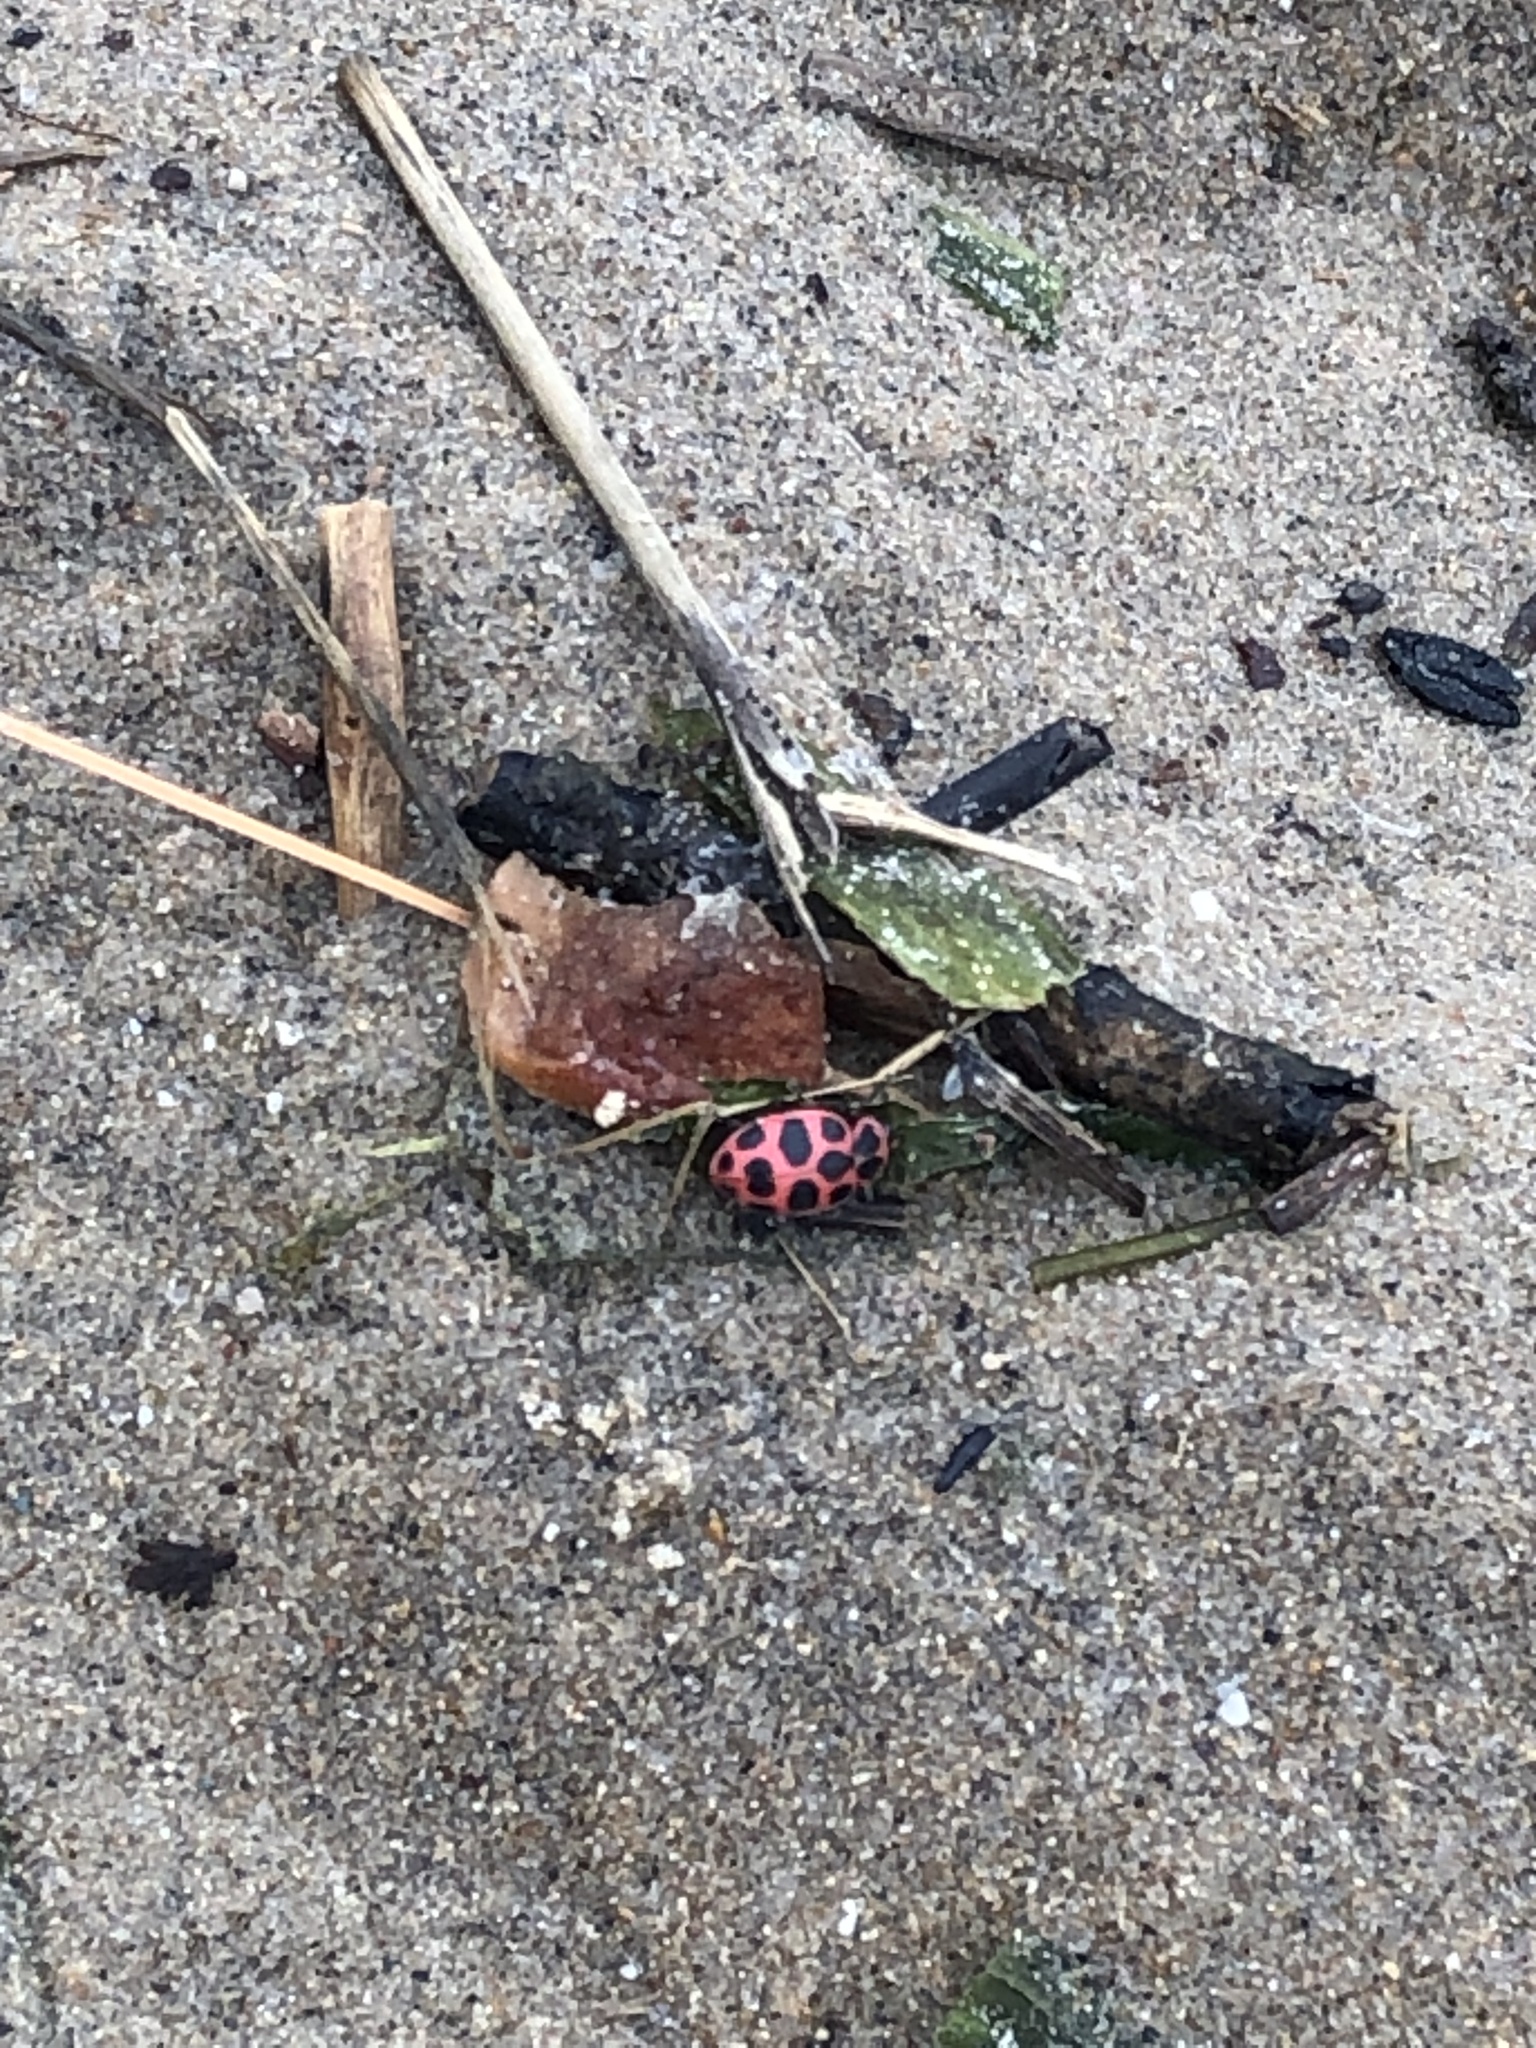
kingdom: Animalia
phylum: Arthropoda
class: Insecta
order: Coleoptera
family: Coccinellidae
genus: Coleomegilla
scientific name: Coleomegilla maculata
